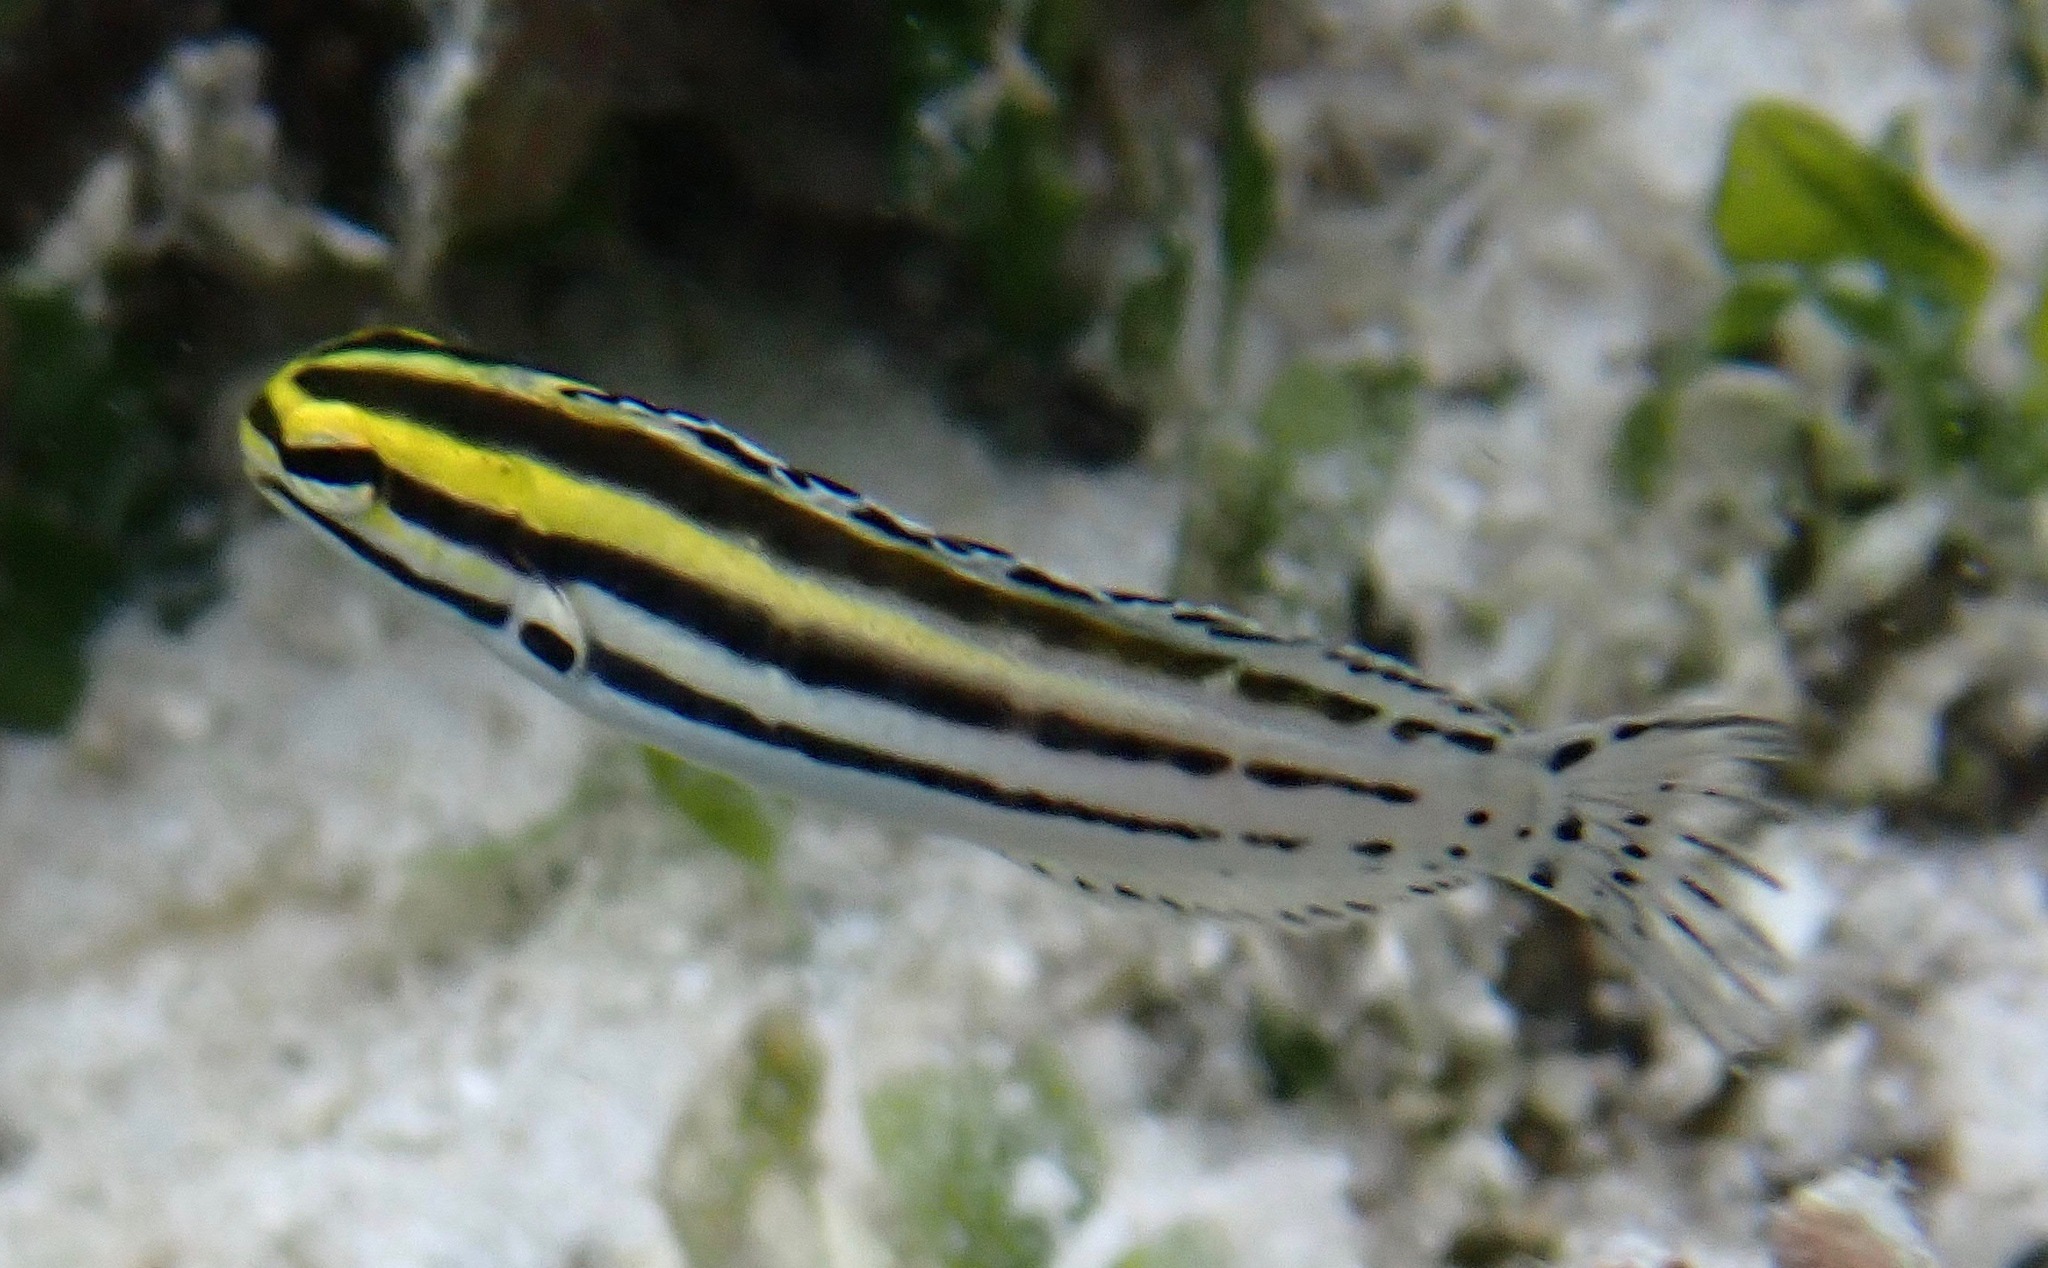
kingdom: Animalia
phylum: Chordata
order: Perciformes
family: Blenniidae
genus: Meiacanthus
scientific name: Meiacanthus grammistes
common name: Grammistes blenny
